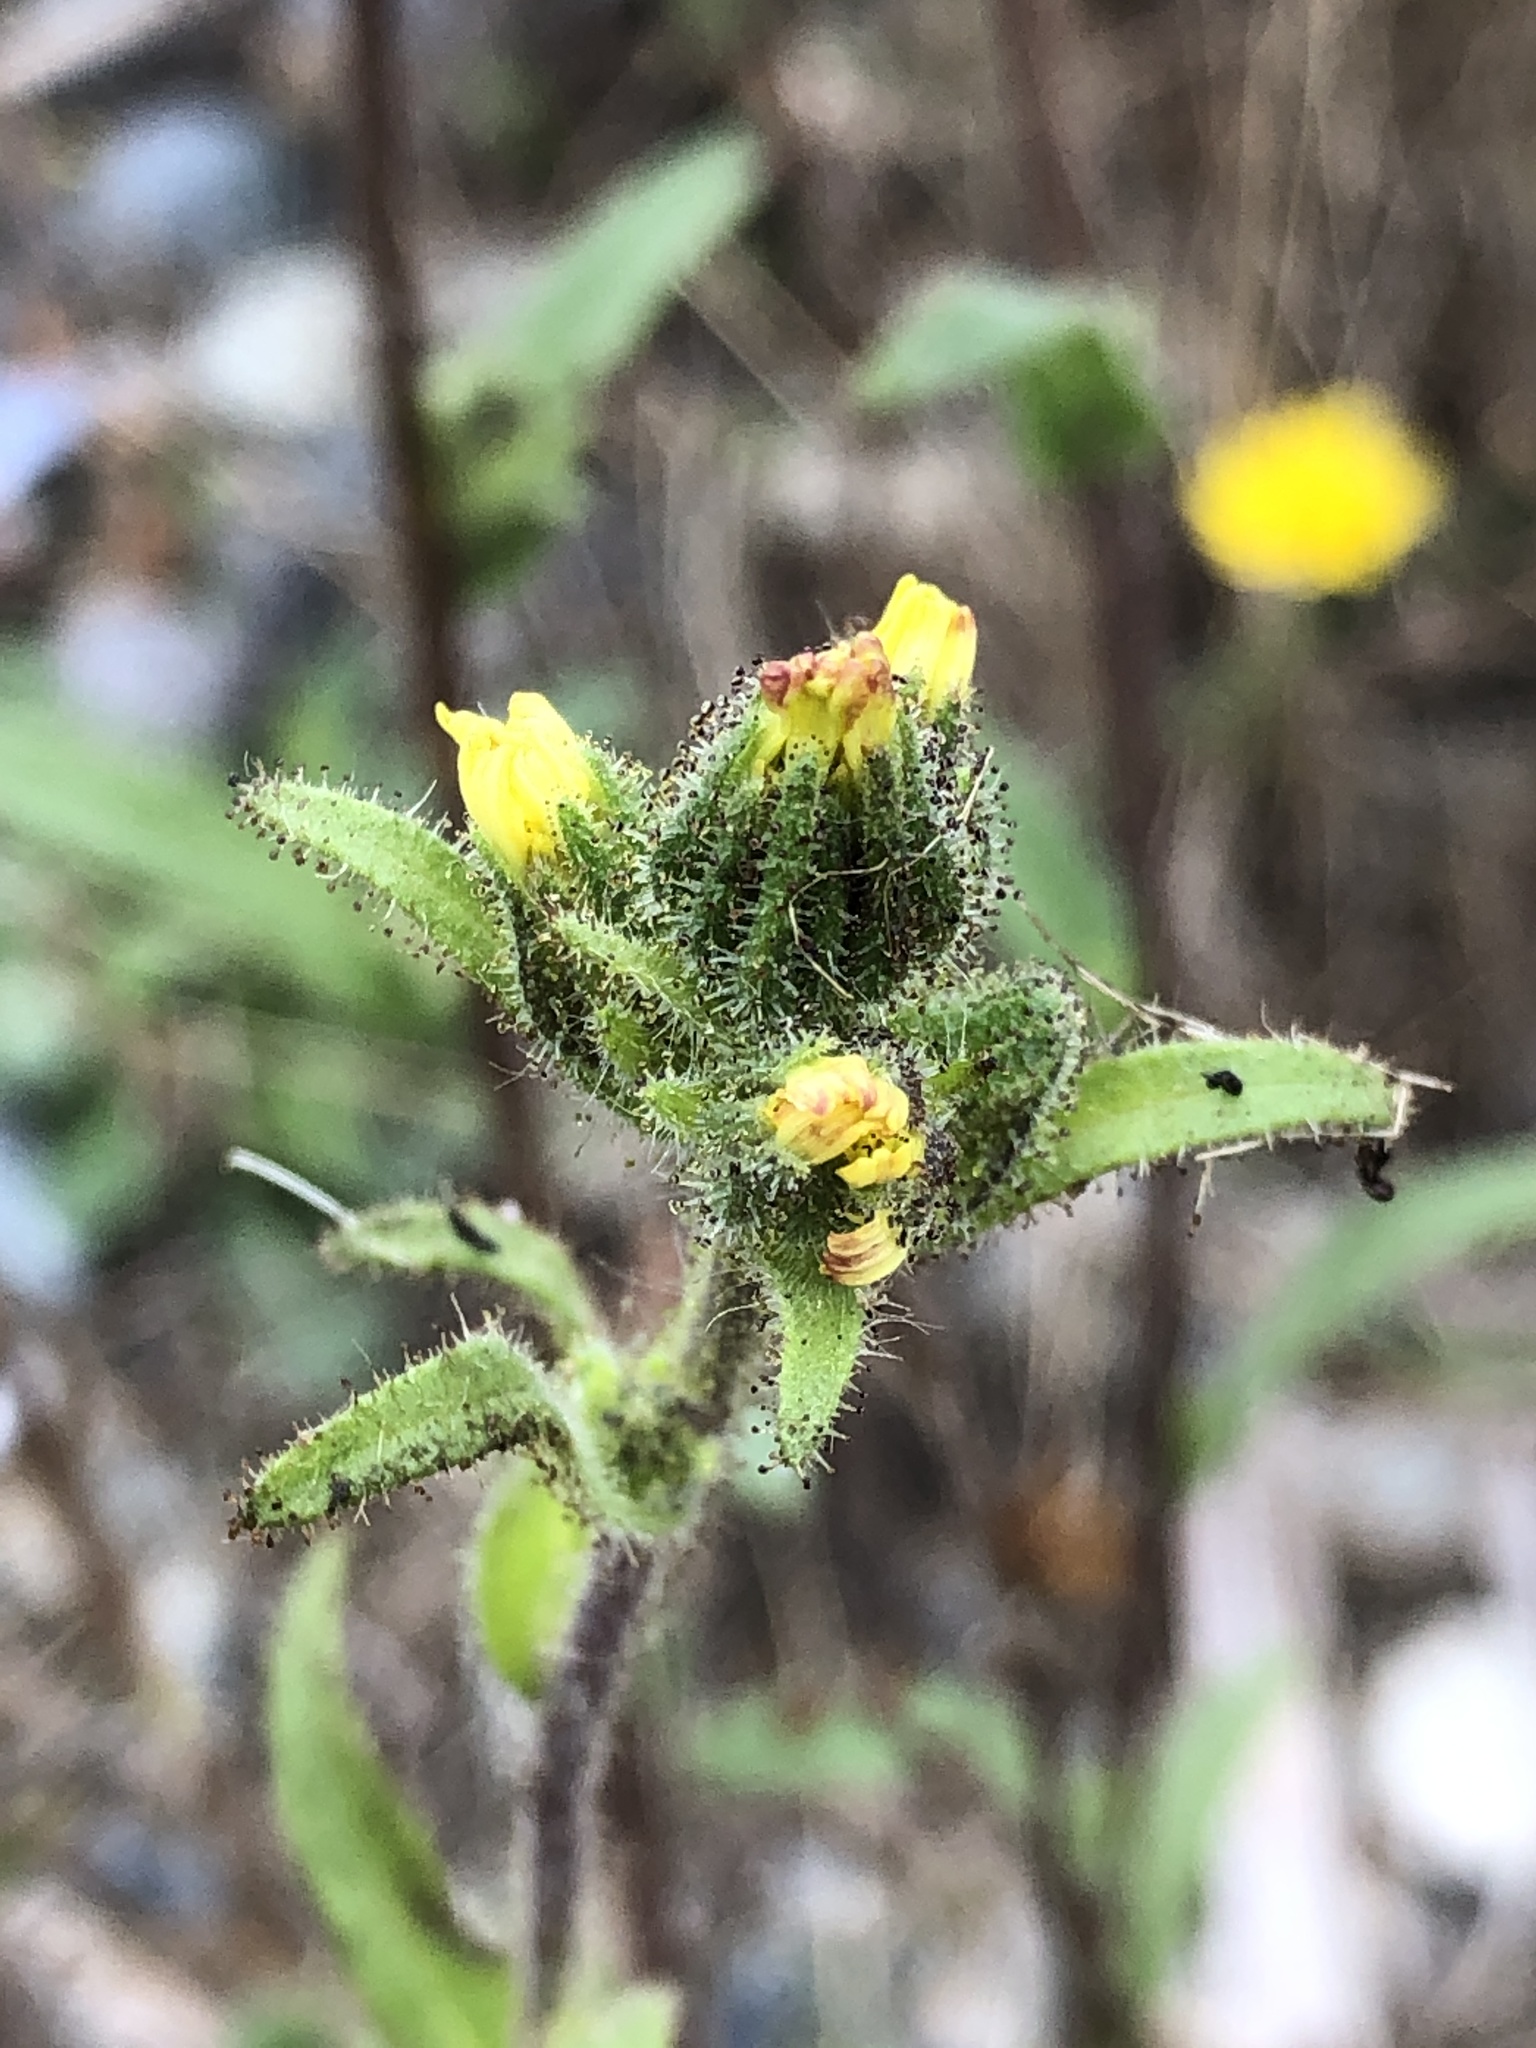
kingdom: Plantae
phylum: Tracheophyta
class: Magnoliopsida
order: Asterales
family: Asteraceae
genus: Madia
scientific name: Madia sativa
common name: Coast tarweed
